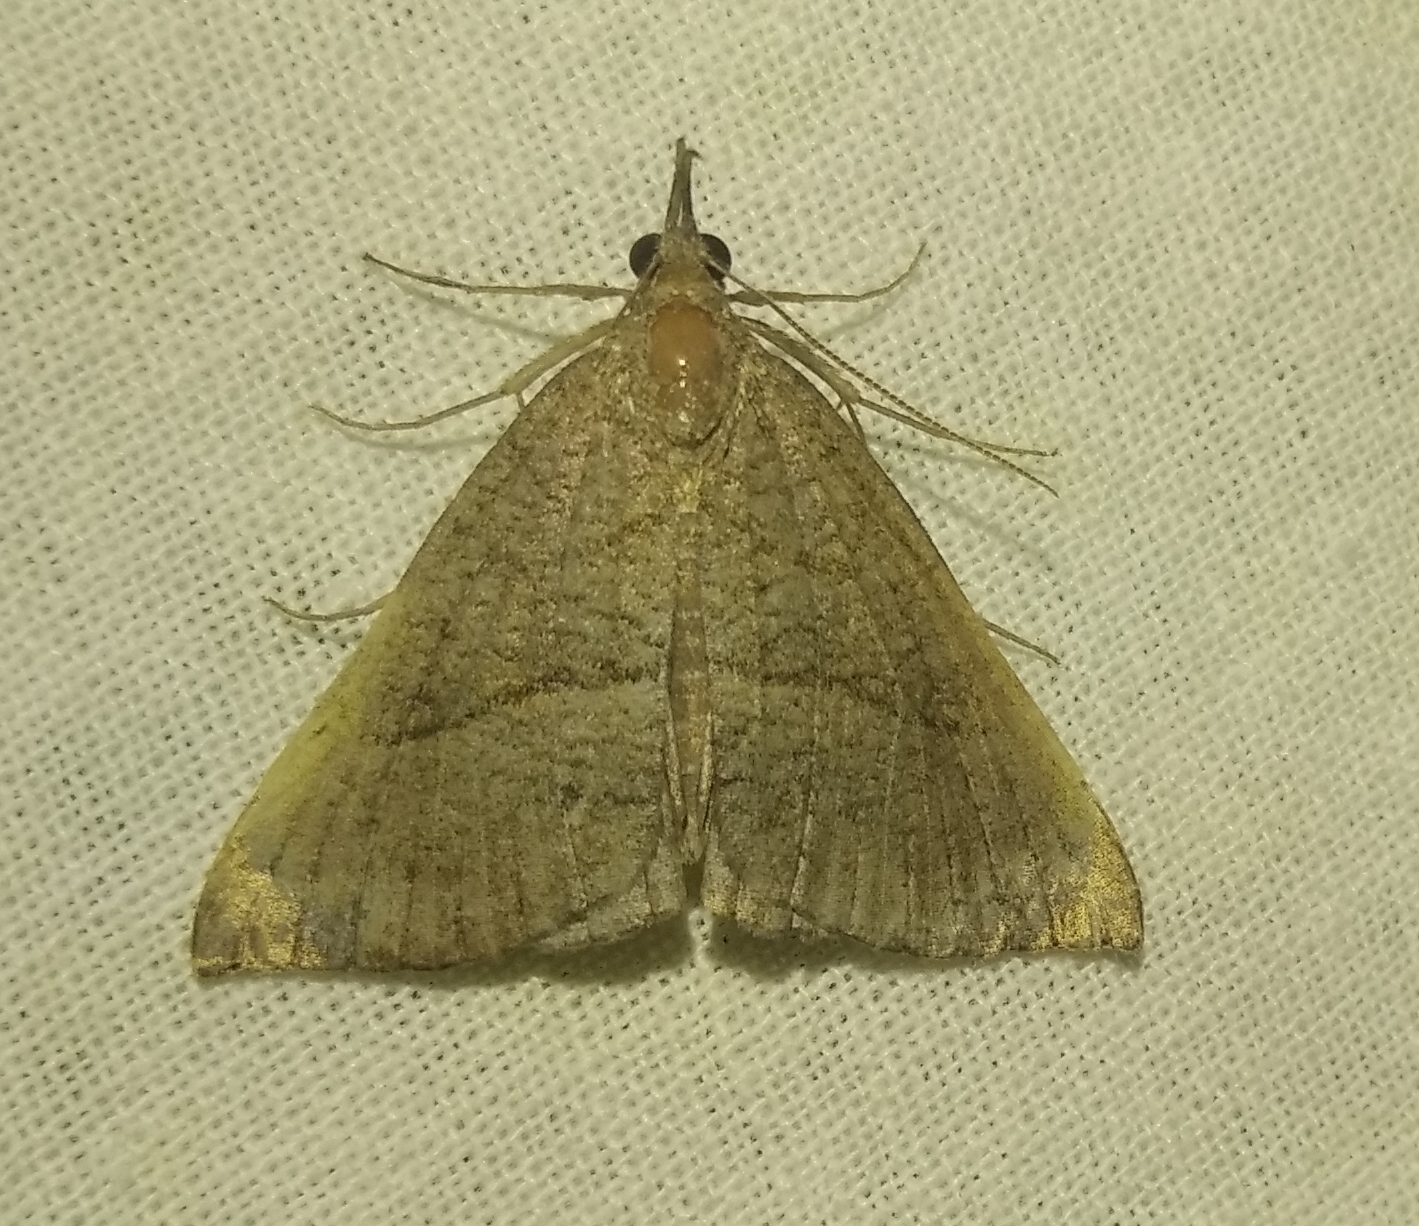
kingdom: Animalia
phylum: Arthropoda
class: Insecta
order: Lepidoptera
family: Erebidae
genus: Hypena
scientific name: Hypena proboscidalis
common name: Snout
